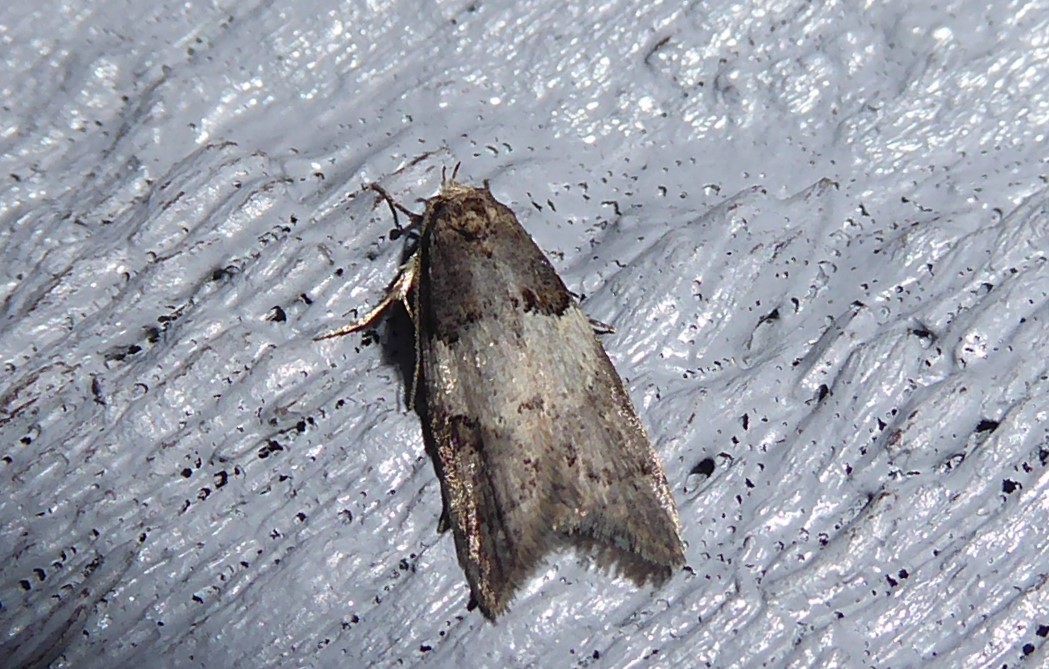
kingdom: Animalia
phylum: Arthropoda
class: Insecta
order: Lepidoptera
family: Oecophoridae
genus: Trachypepla
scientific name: Trachypepla contritella
